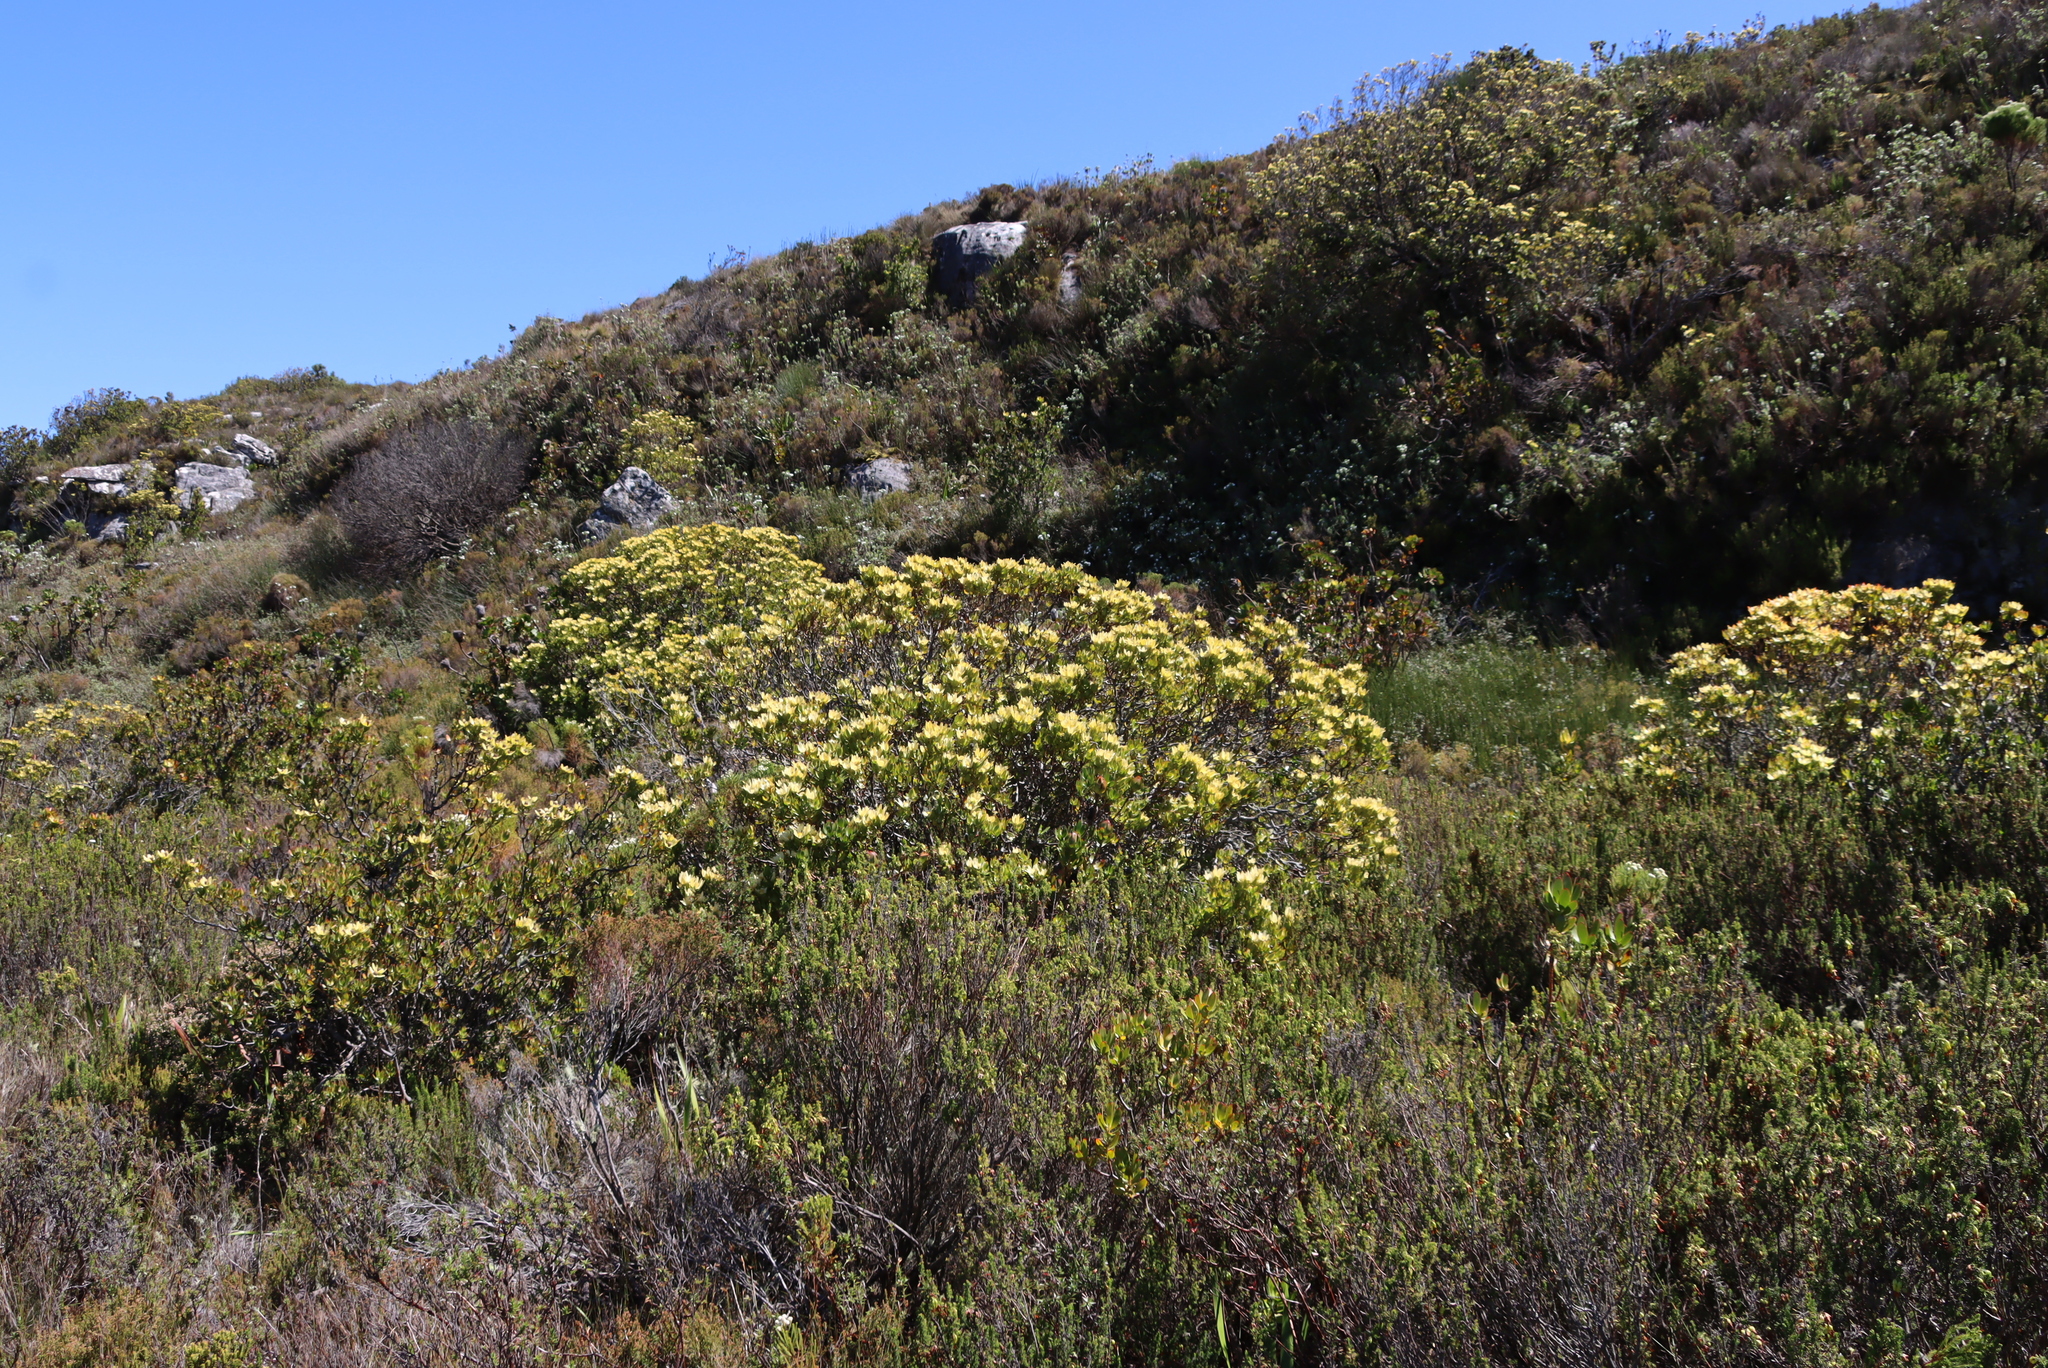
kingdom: Plantae
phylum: Tracheophyta
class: Magnoliopsida
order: Proteales
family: Proteaceae
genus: Leucadendron
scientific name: Leucadendron strobilinum
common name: Mountain rose
